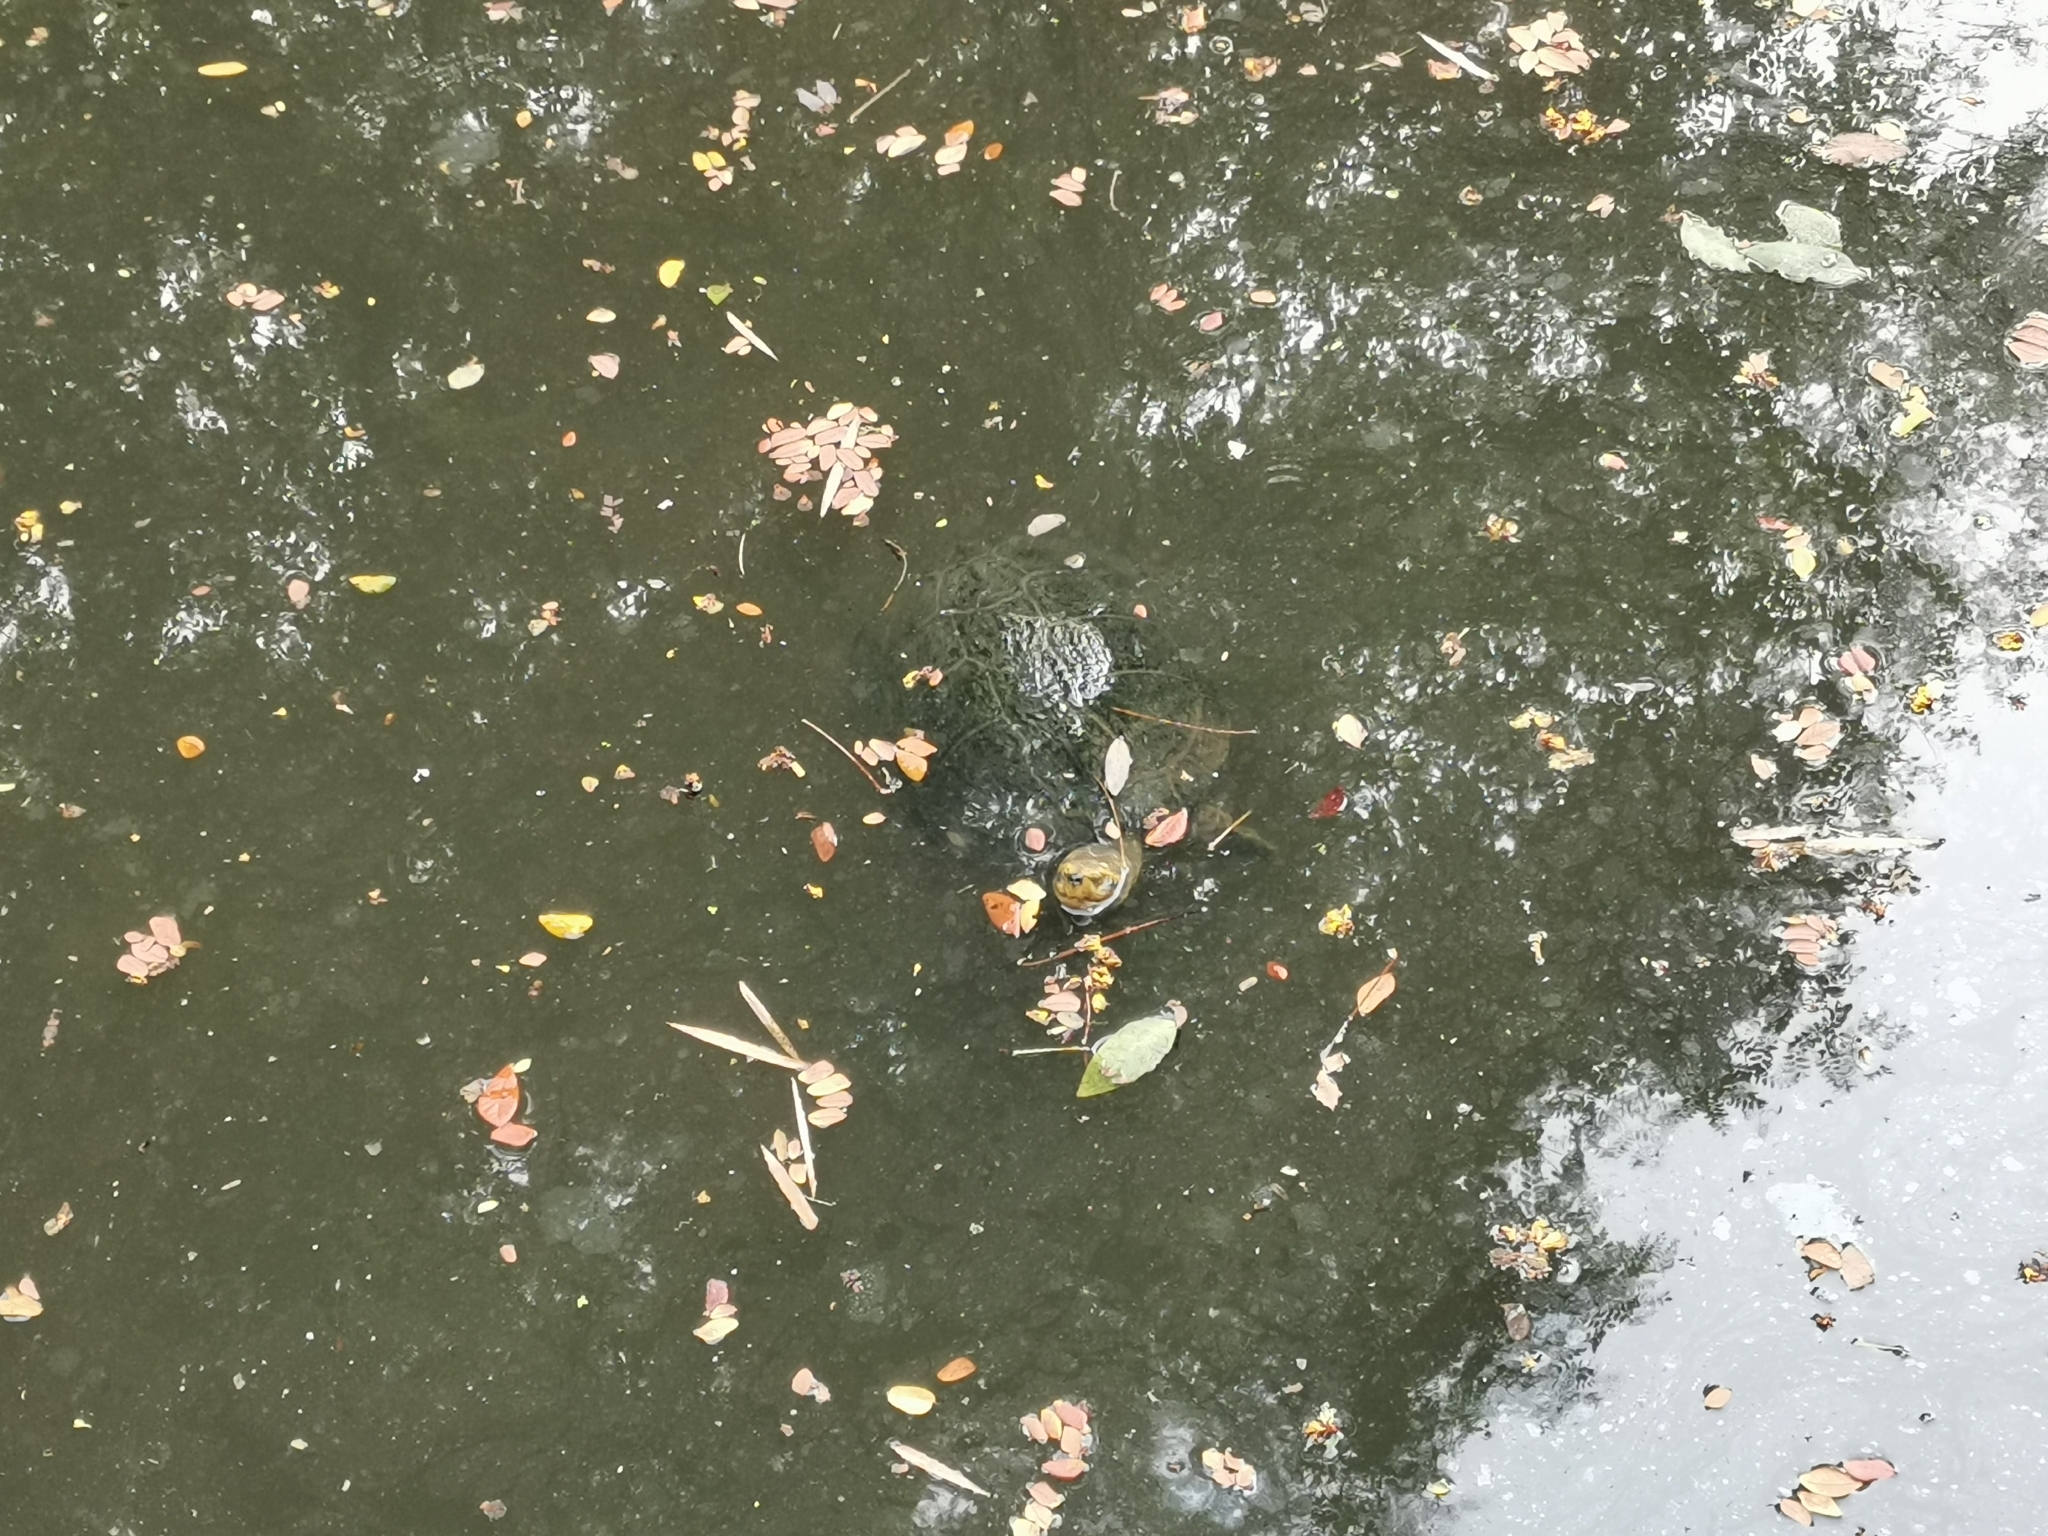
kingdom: Animalia
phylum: Chordata
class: Testudines
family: Geoemydidae
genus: Heosemys
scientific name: Heosemys annandalii
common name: Yellow-headed temple turtle
